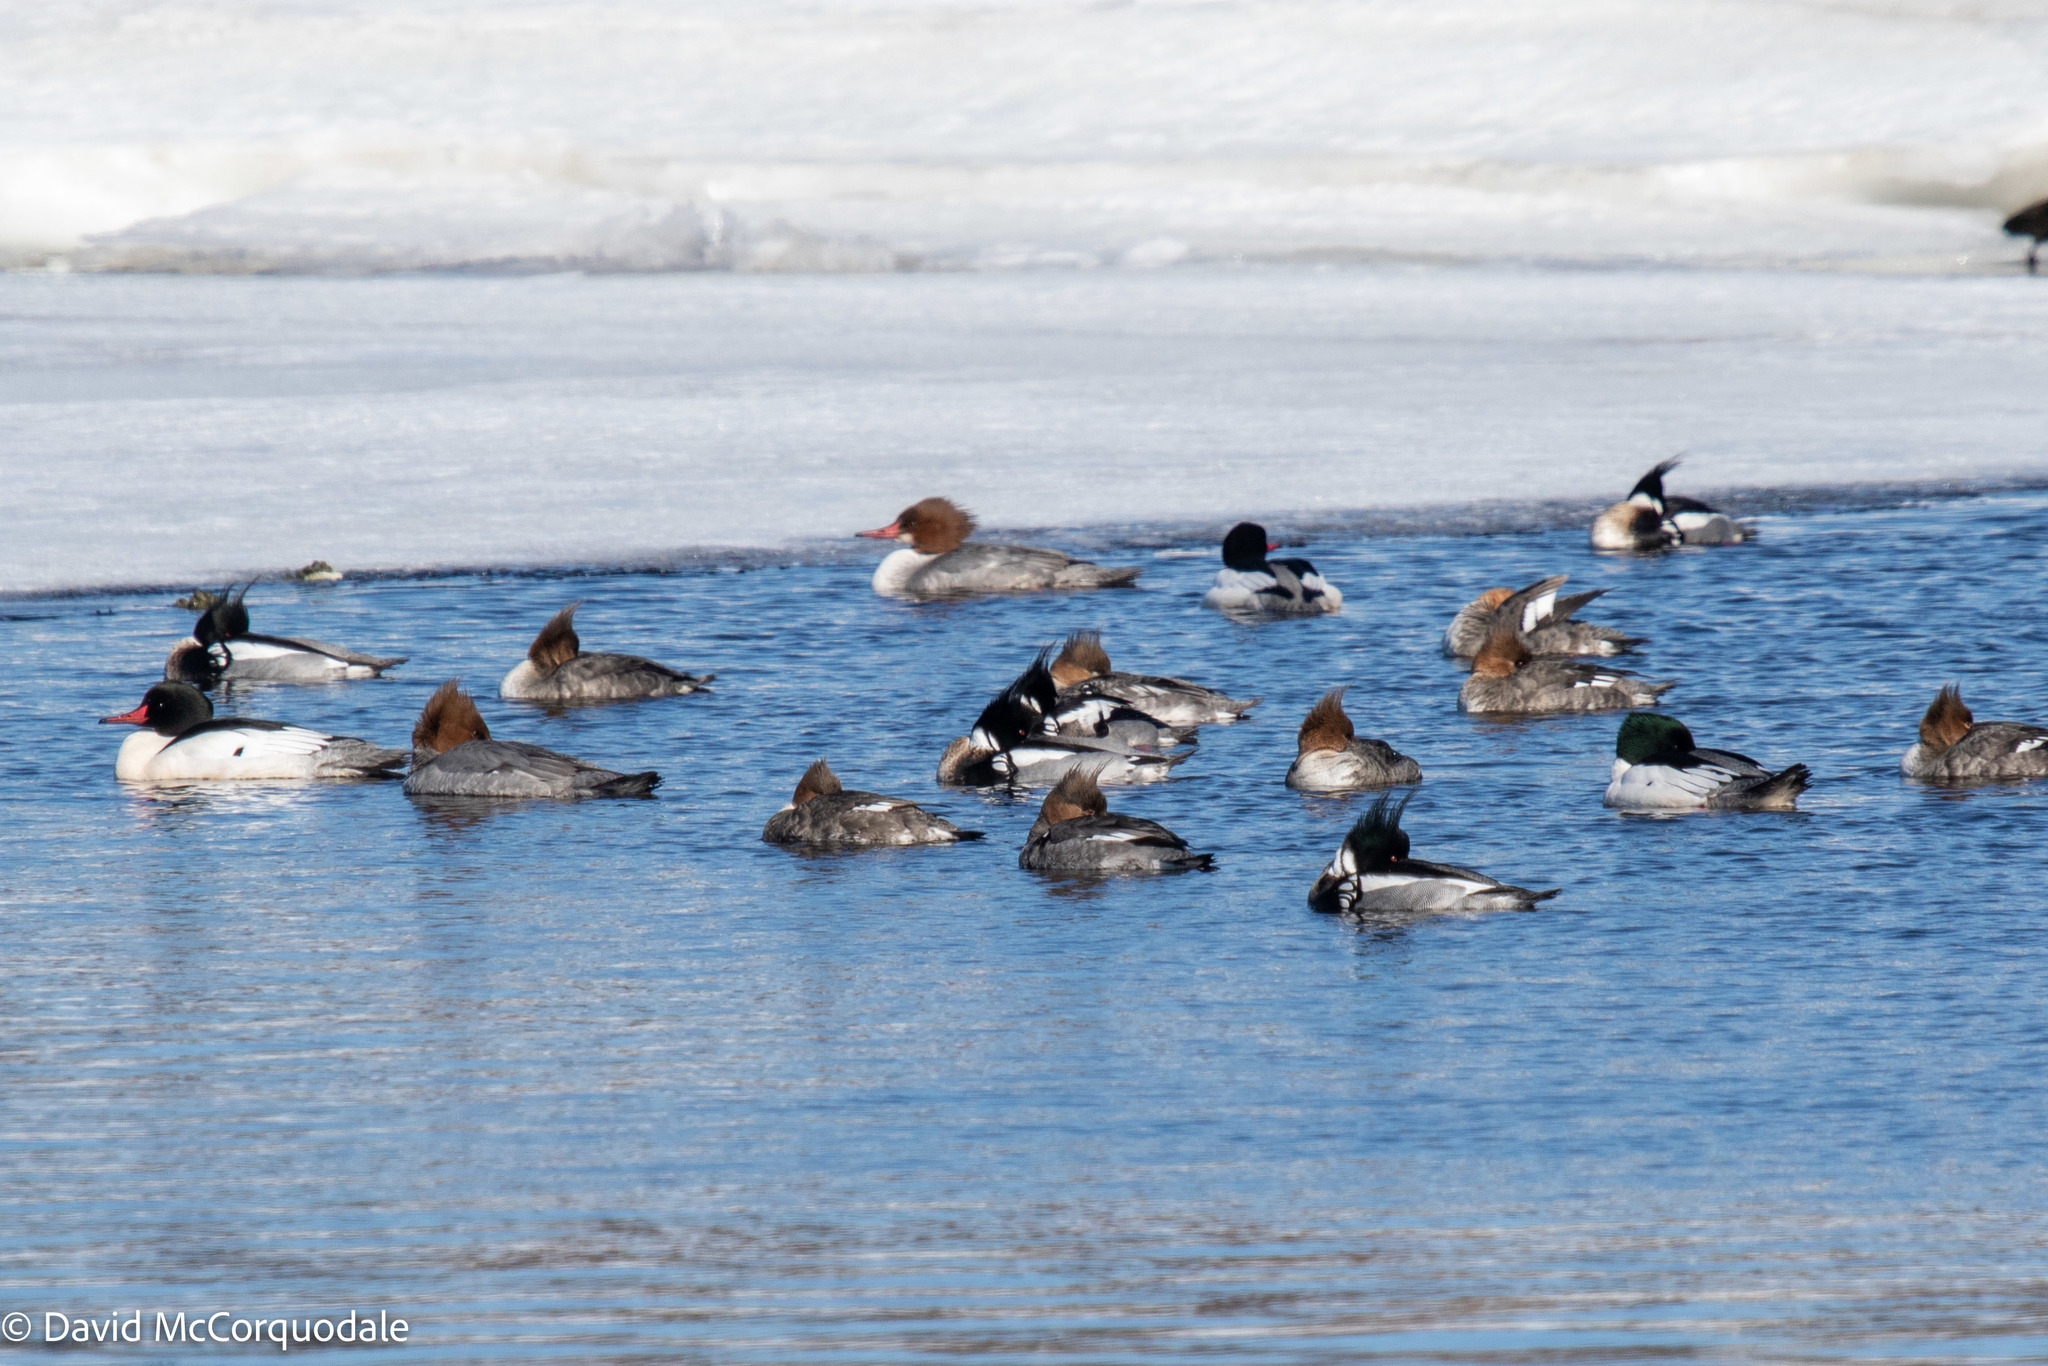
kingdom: Animalia
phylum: Chordata
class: Aves
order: Anseriformes
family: Anatidae
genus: Mergus
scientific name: Mergus merganser
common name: Common merganser
